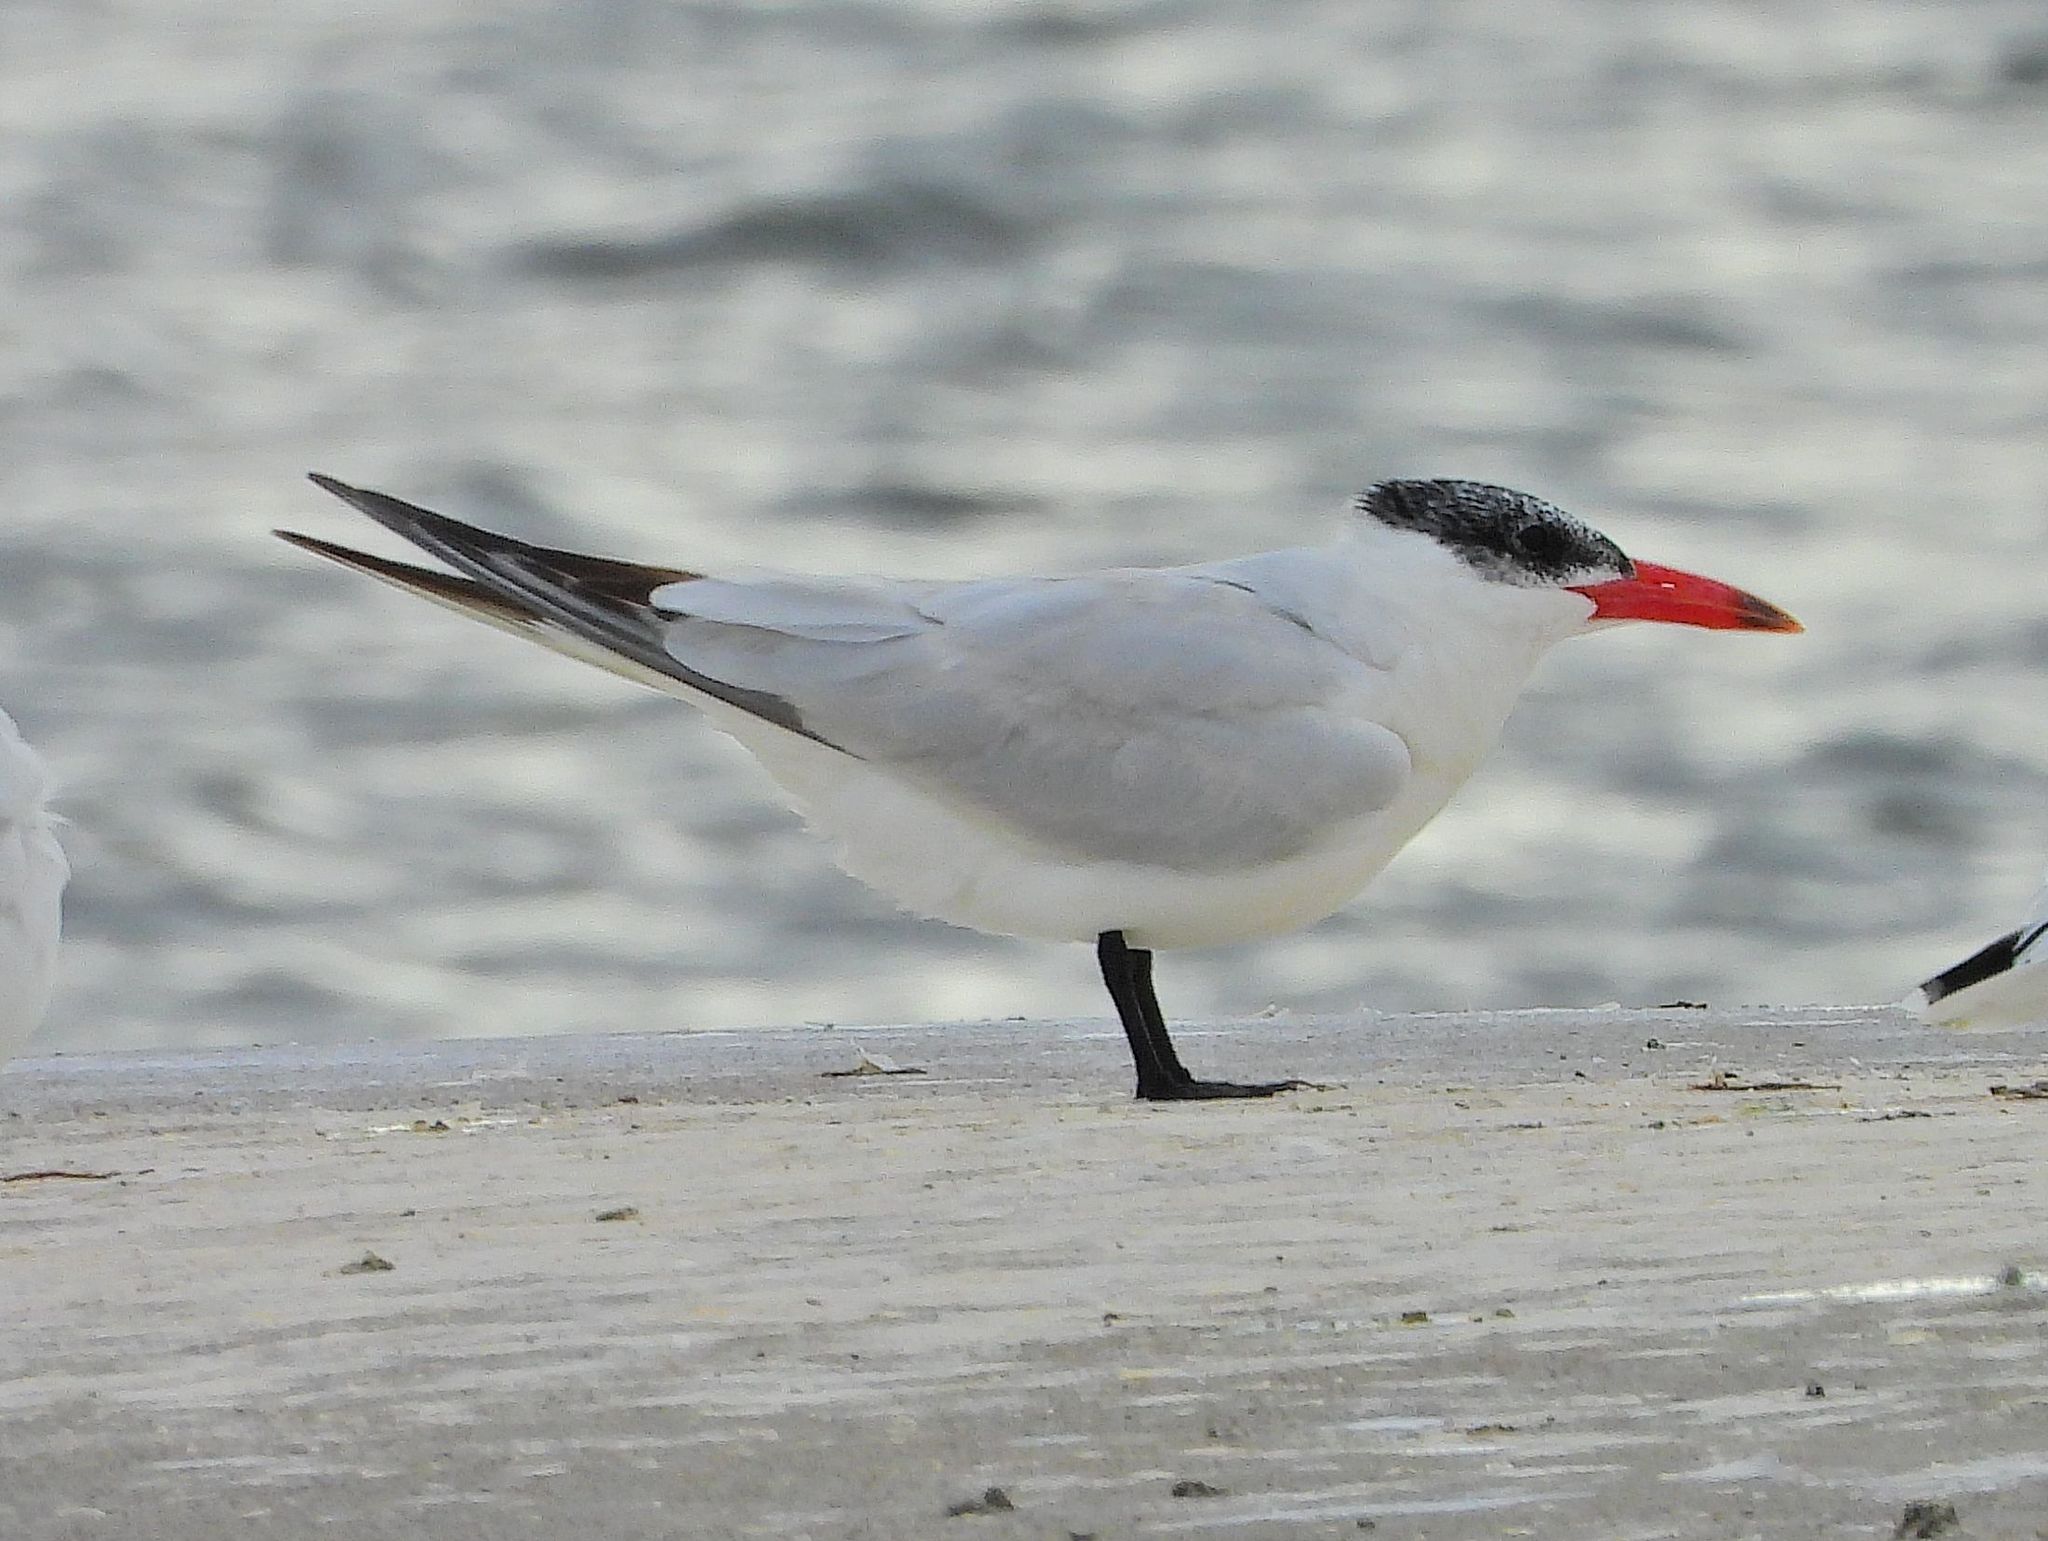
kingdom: Animalia
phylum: Chordata
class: Aves
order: Charadriiformes
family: Laridae
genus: Hydroprogne
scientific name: Hydroprogne caspia
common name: Caspian tern
